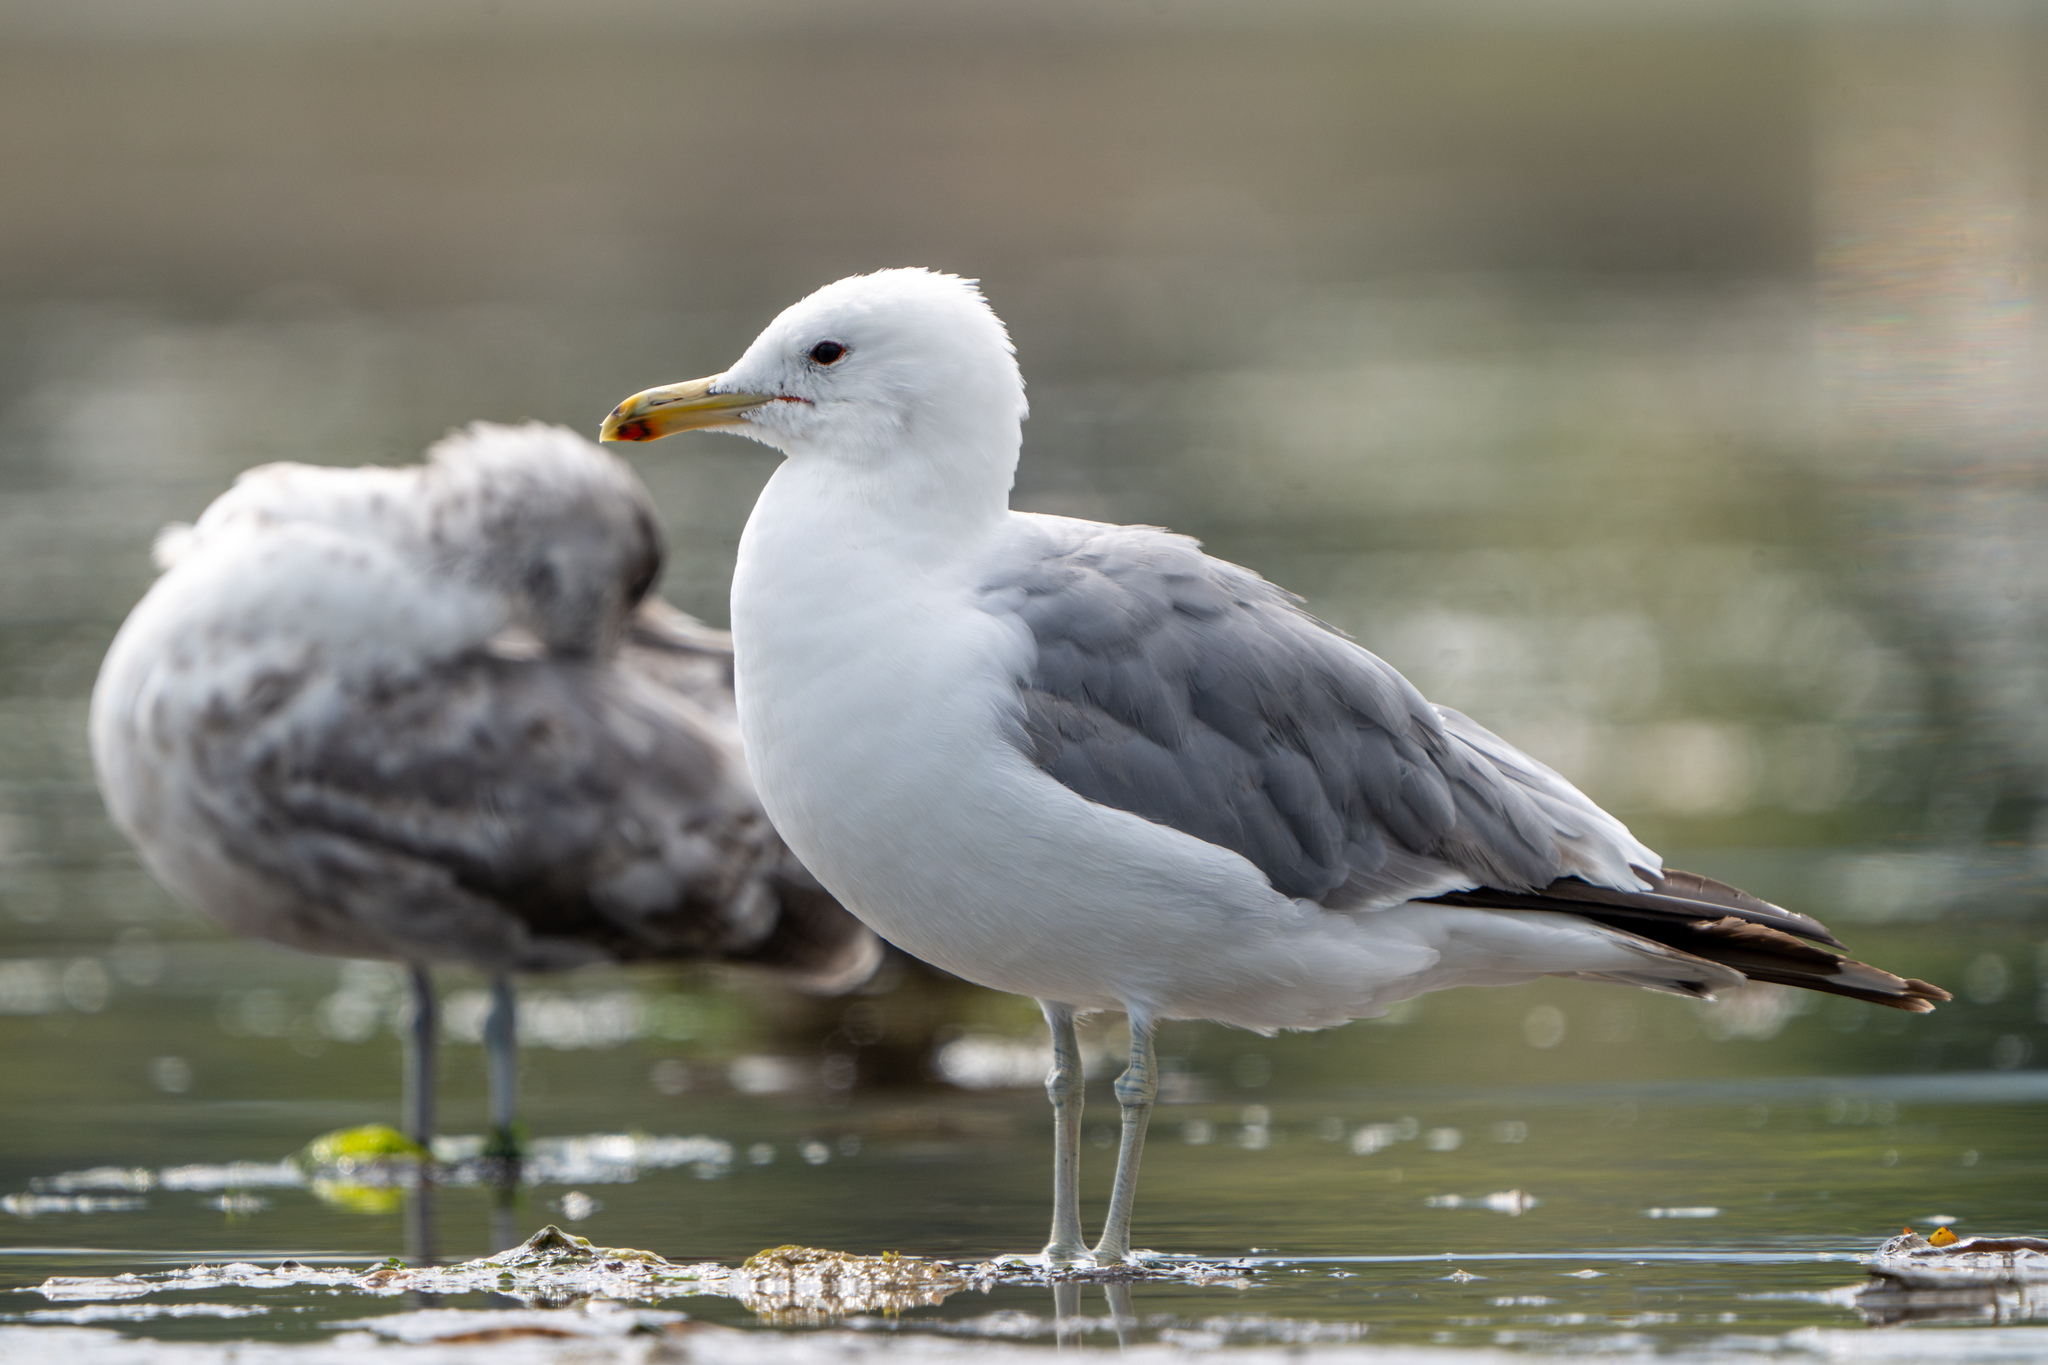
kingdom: Animalia
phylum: Chordata
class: Aves
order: Charadriiformes
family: Laridae
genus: Larus
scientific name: Larus californicus
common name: California gull
